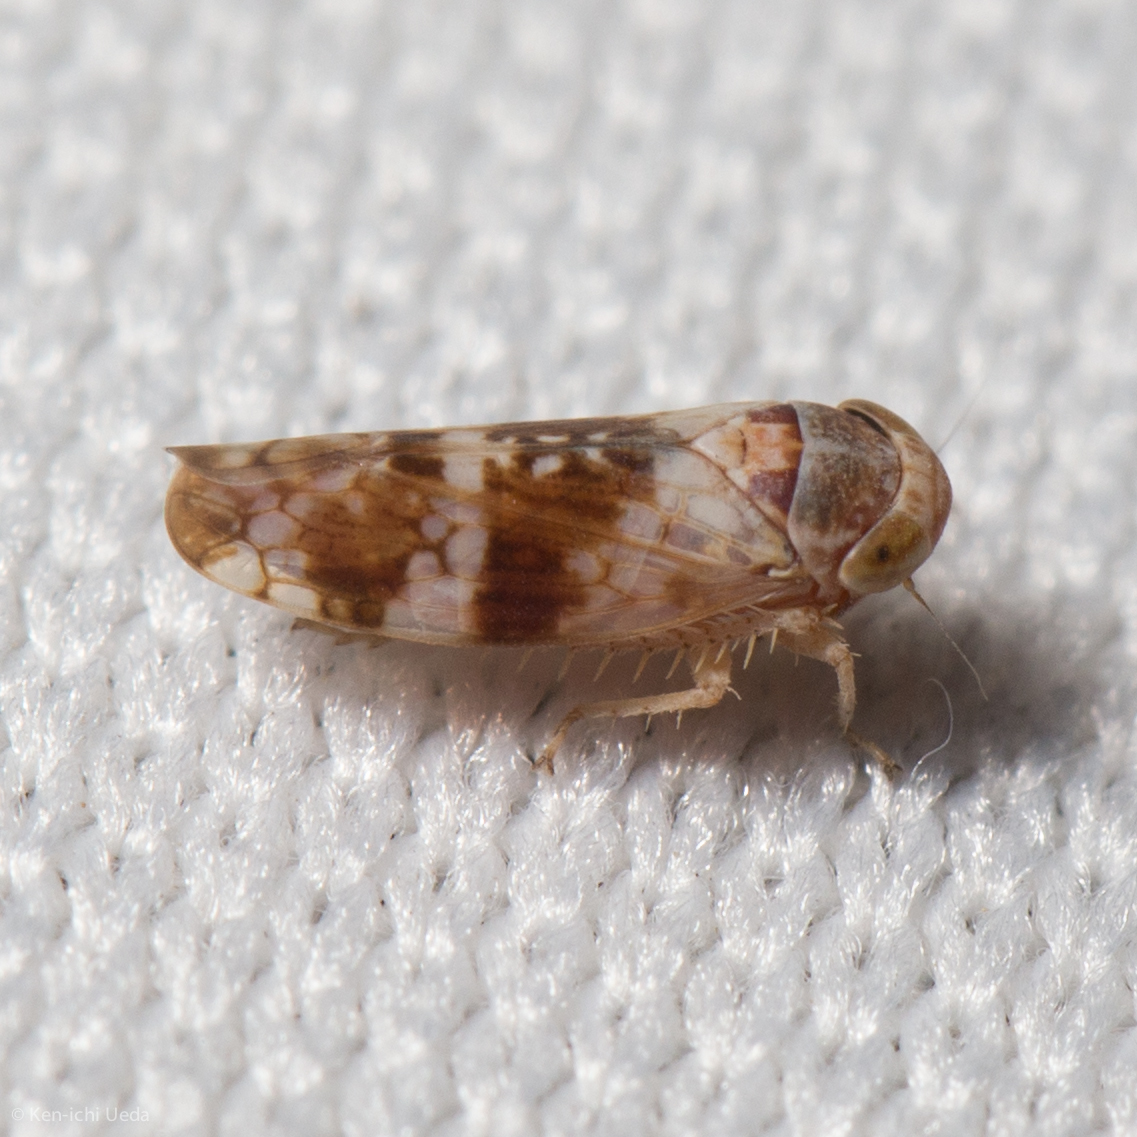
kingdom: Animalia
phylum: Arthropoda
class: Insecta
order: Hemiptera
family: Cicadellidae
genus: Aligia
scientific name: Aligia dellana
